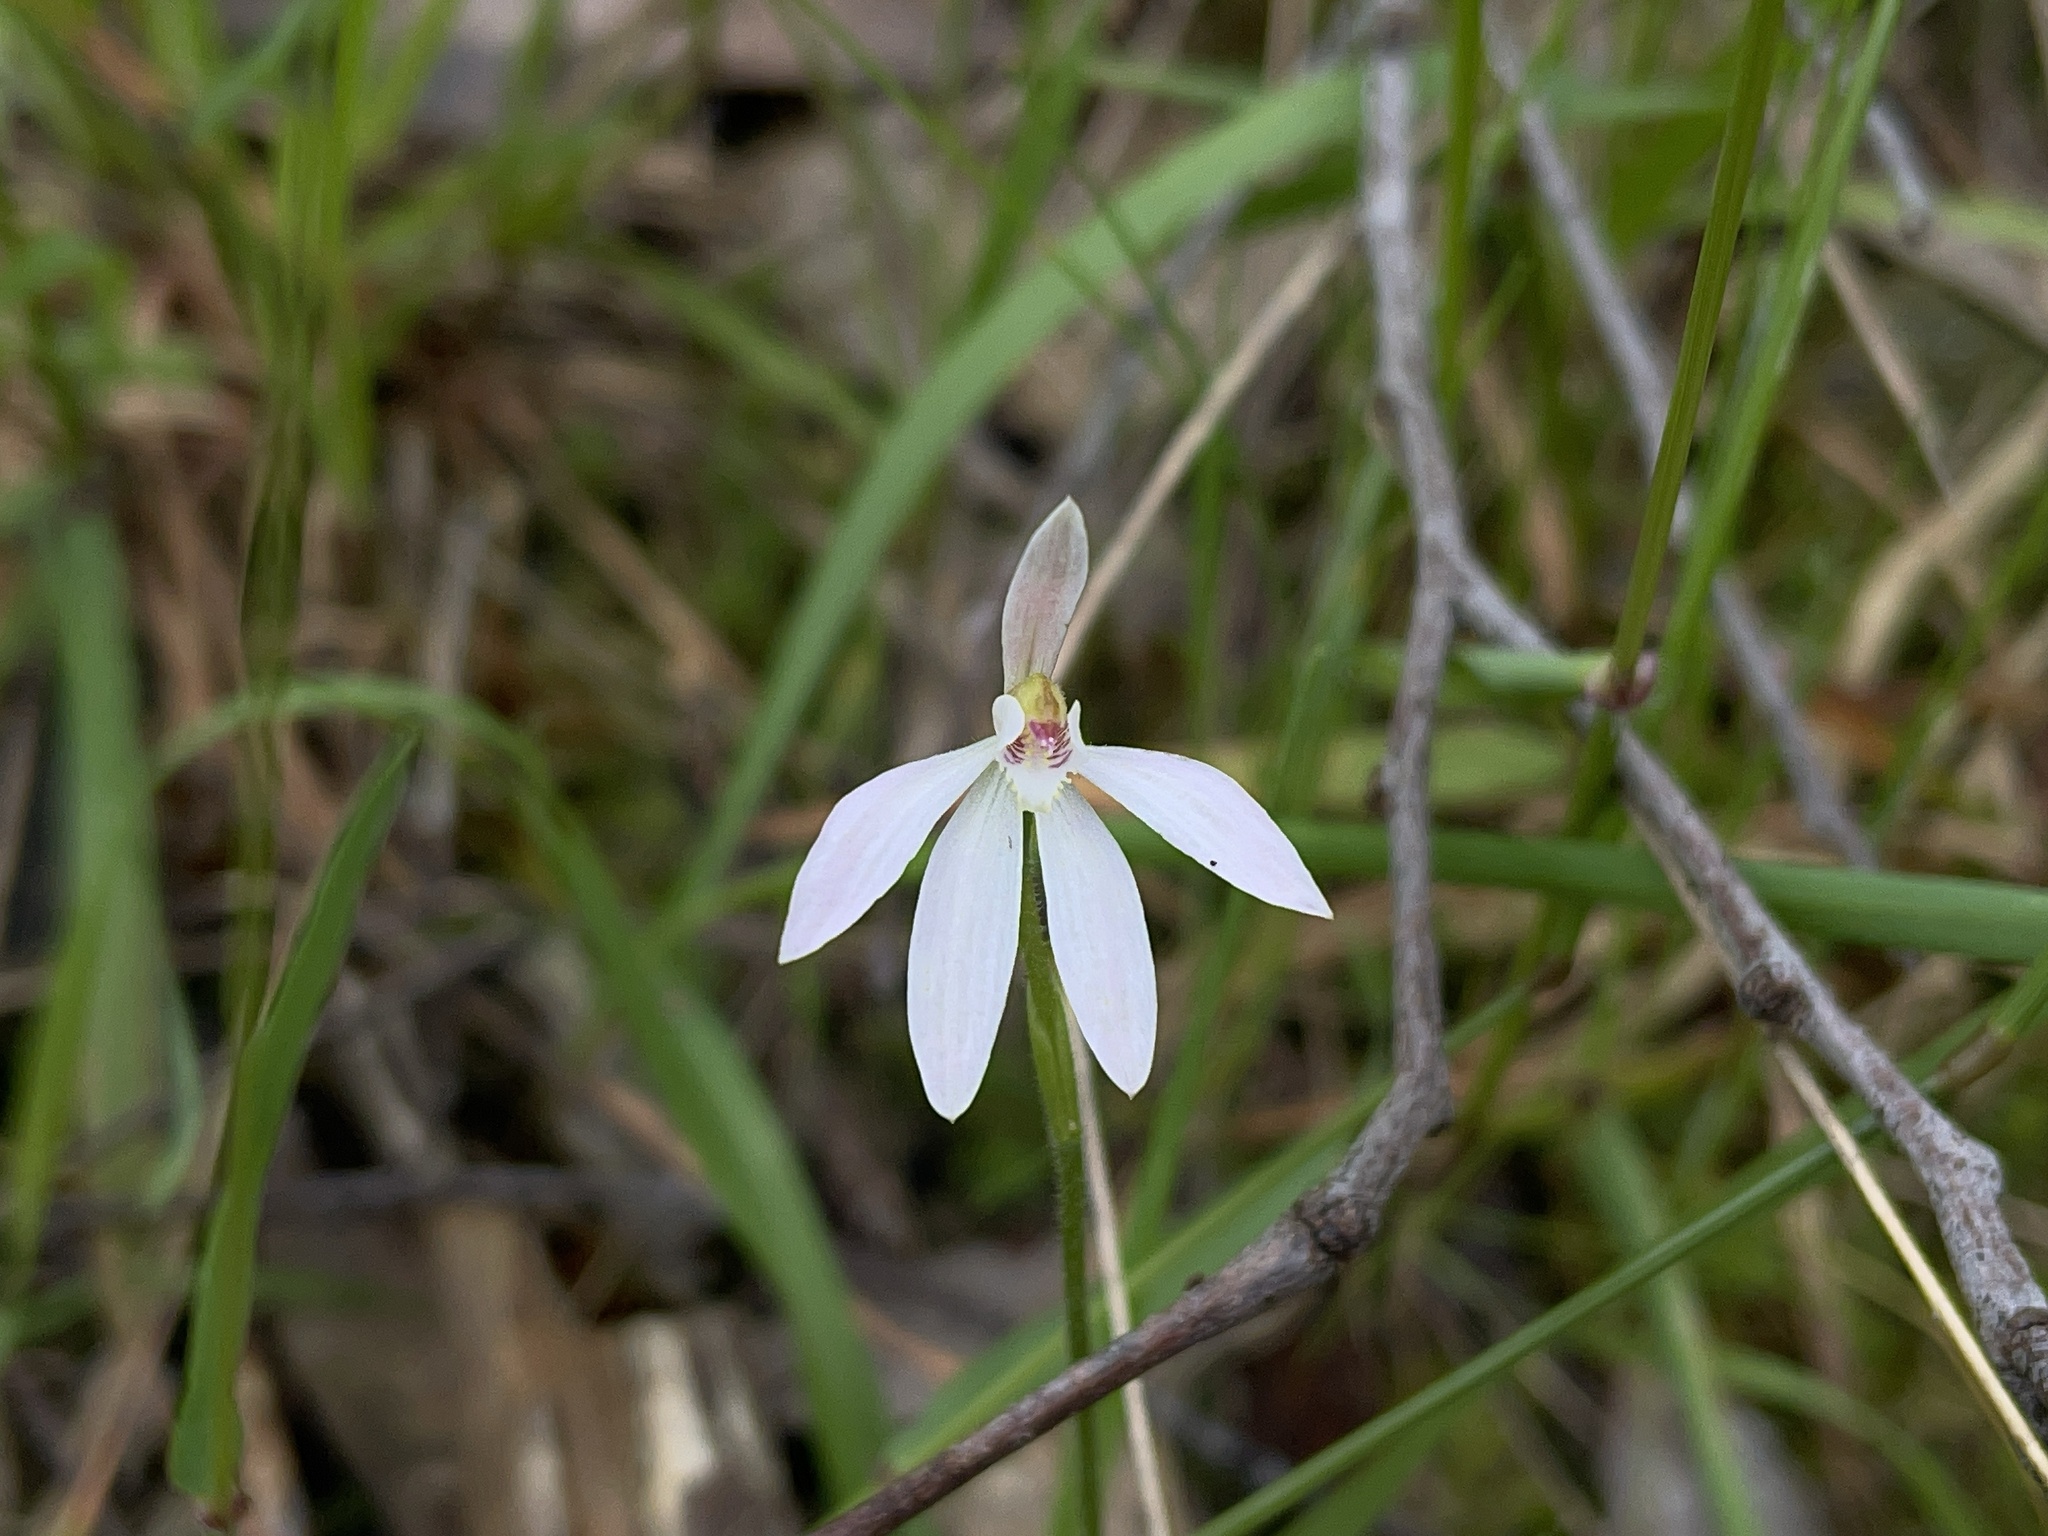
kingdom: Plantae
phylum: Tracheophyta
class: Liliopsida
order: Asparagales
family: Orchidaceae
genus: Caladenia
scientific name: Caladenia carnea
